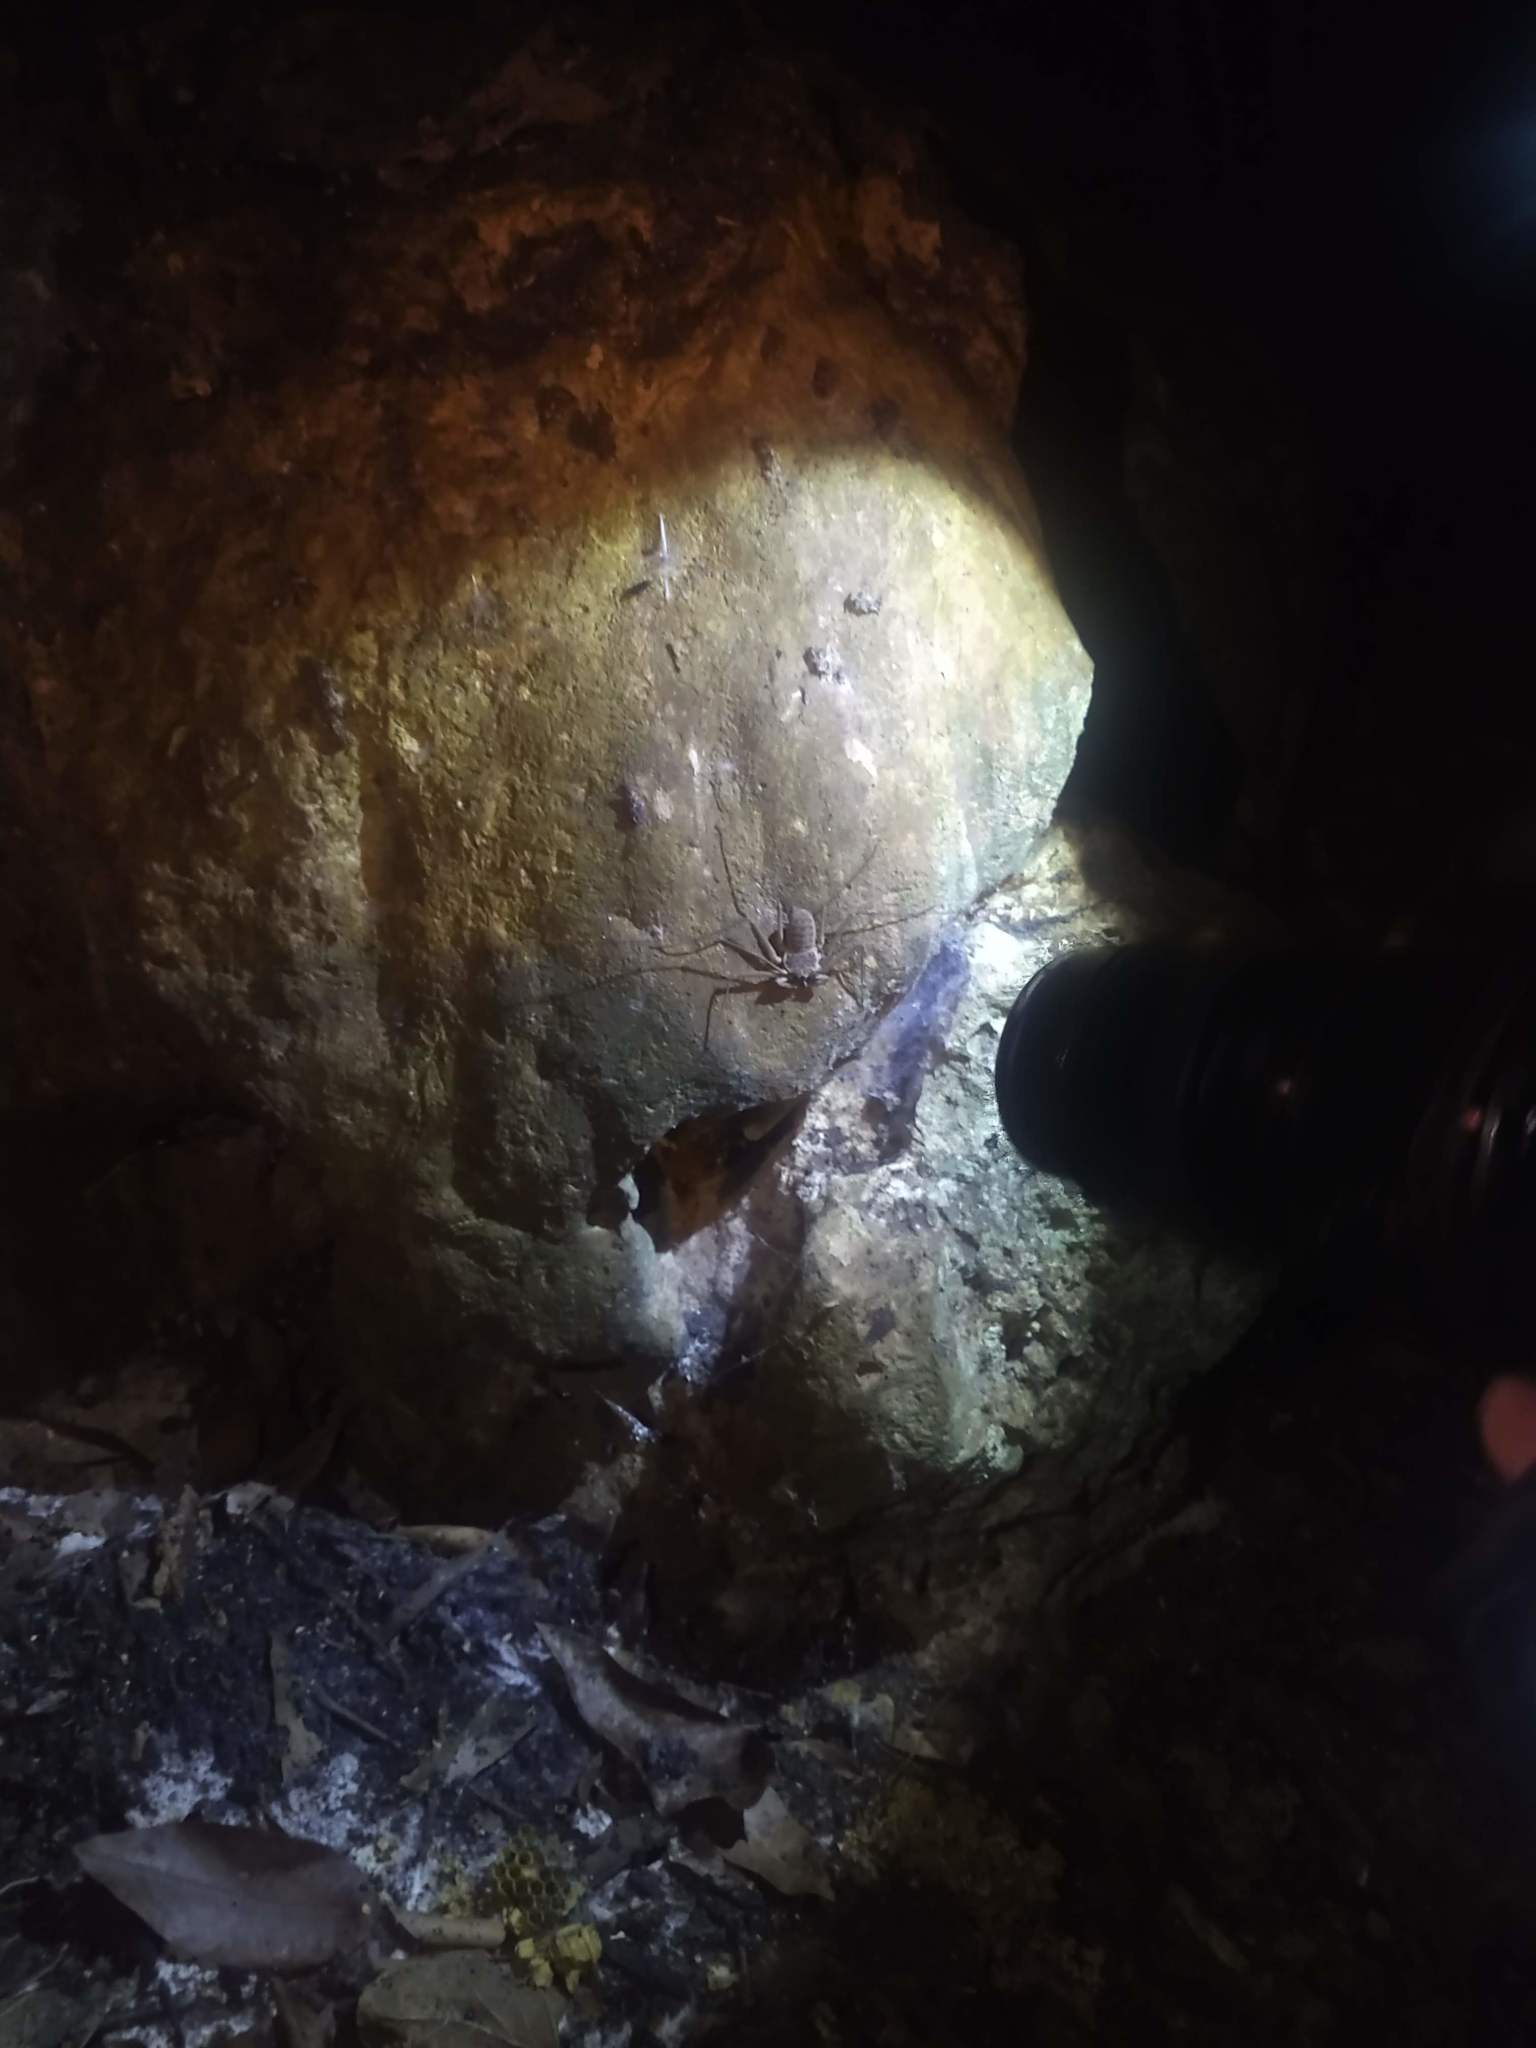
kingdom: Animalia
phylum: Arthropoda
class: Arachnida
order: Amblypygi
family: Phrynidae
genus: Paraphrynus
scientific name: Paraphrynus raptator
